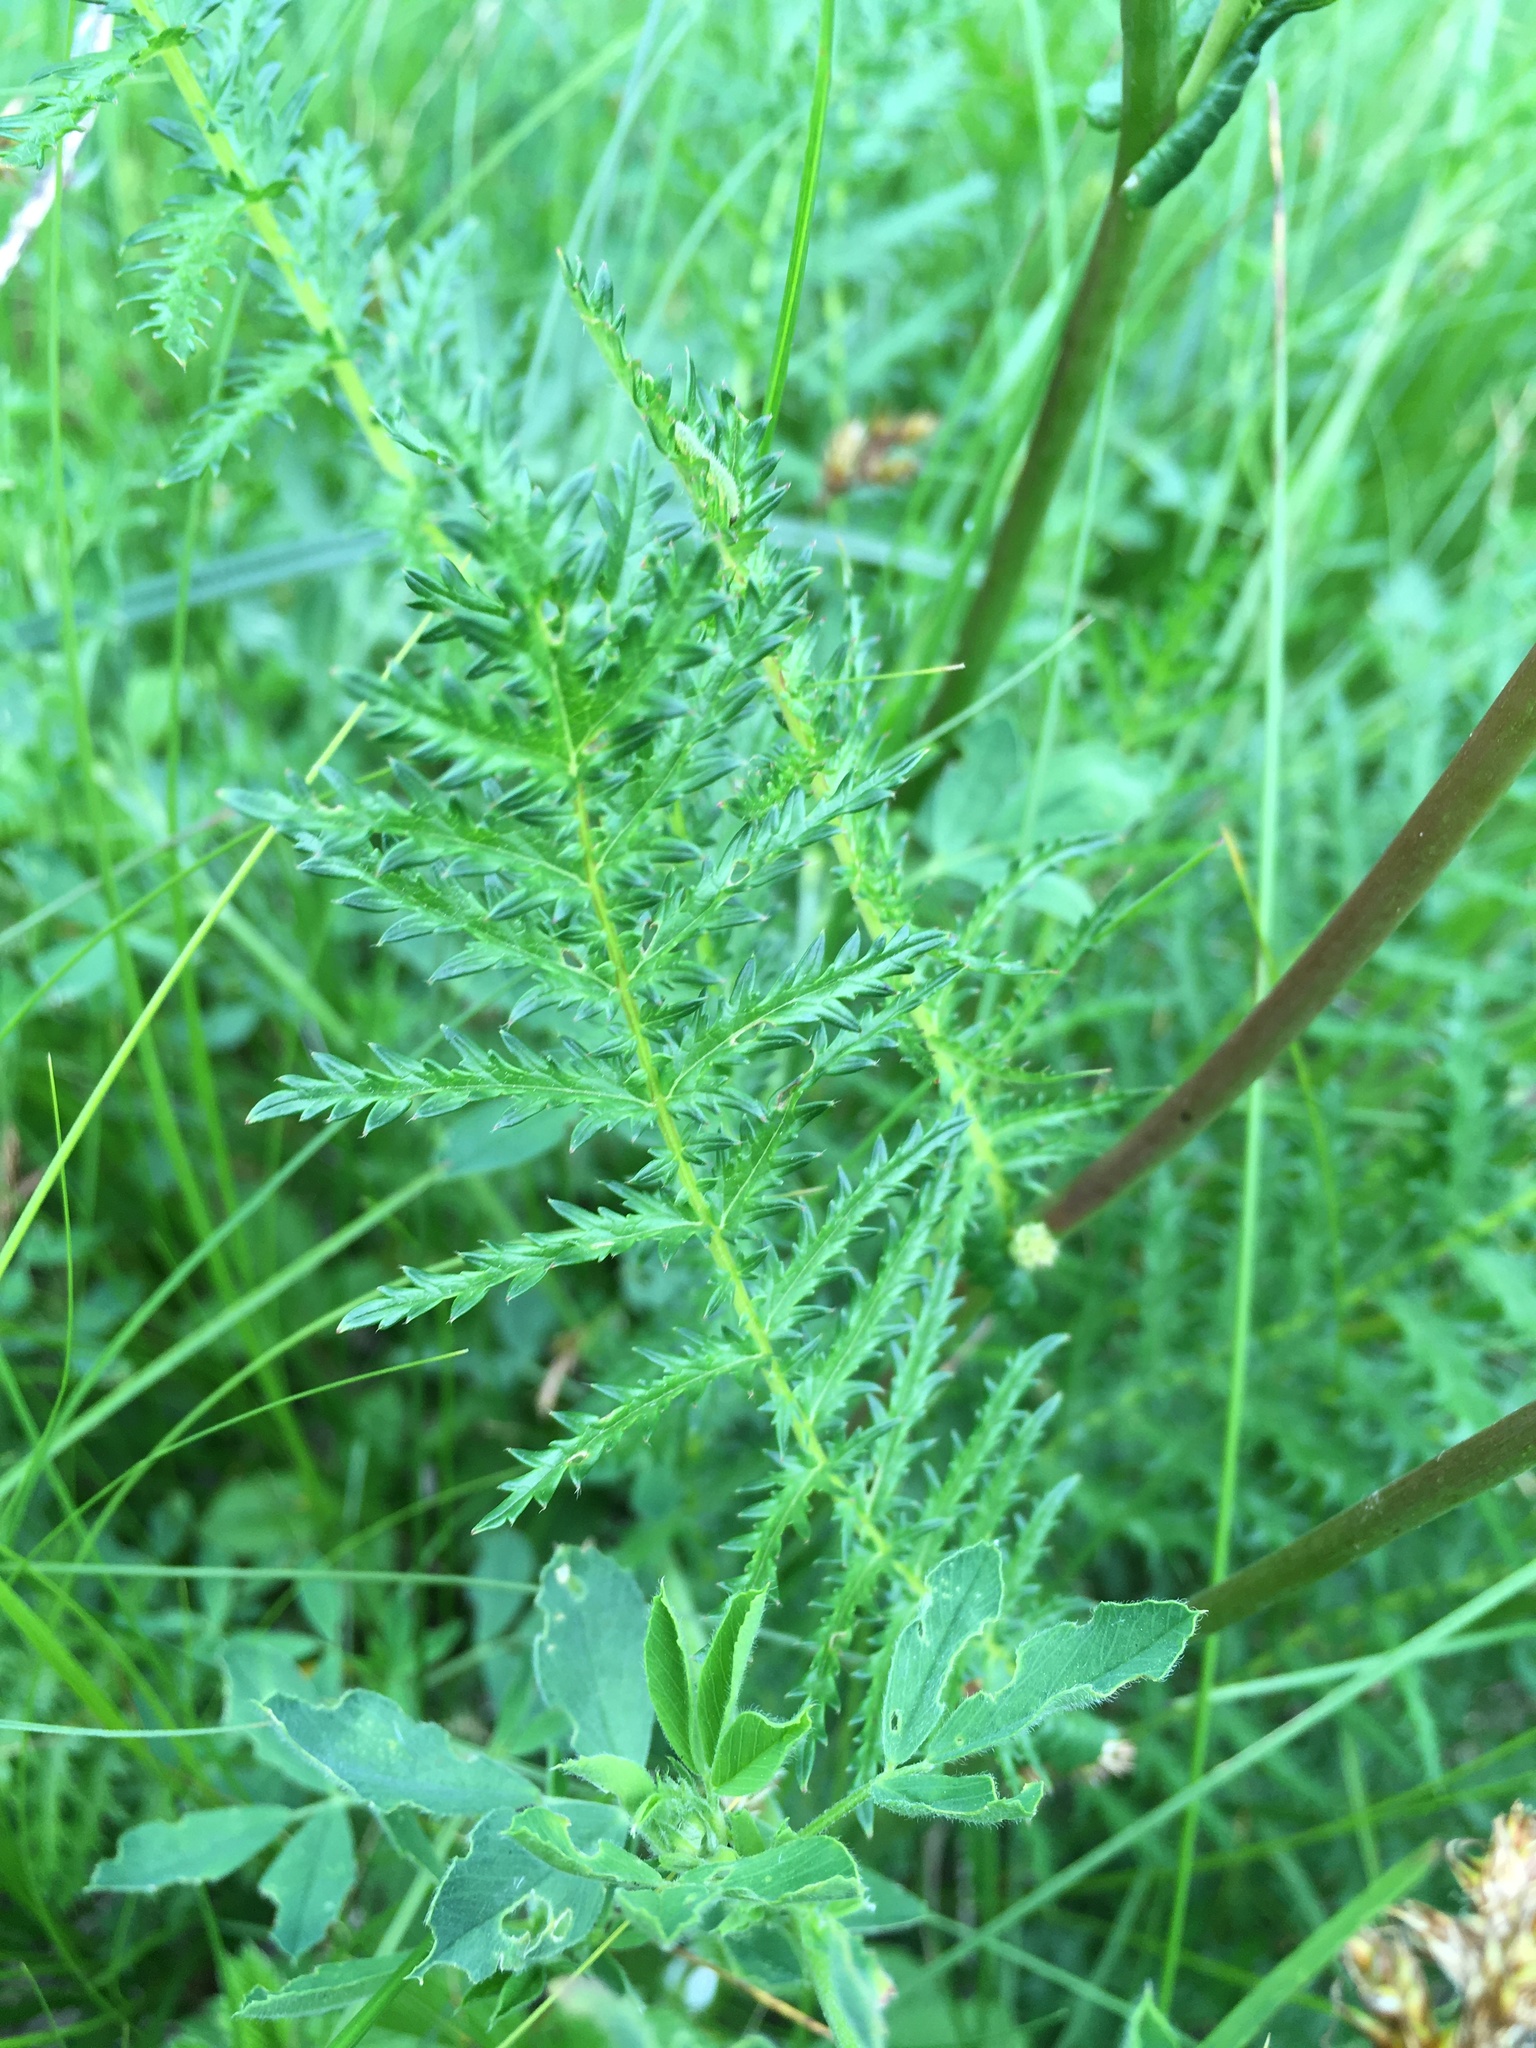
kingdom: Plantae
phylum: Tracheophyta
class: Magnoliopsida
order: Rosales
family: Rosaceae
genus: Filipendula
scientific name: Filipendula vulgaris
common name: Dropwort
